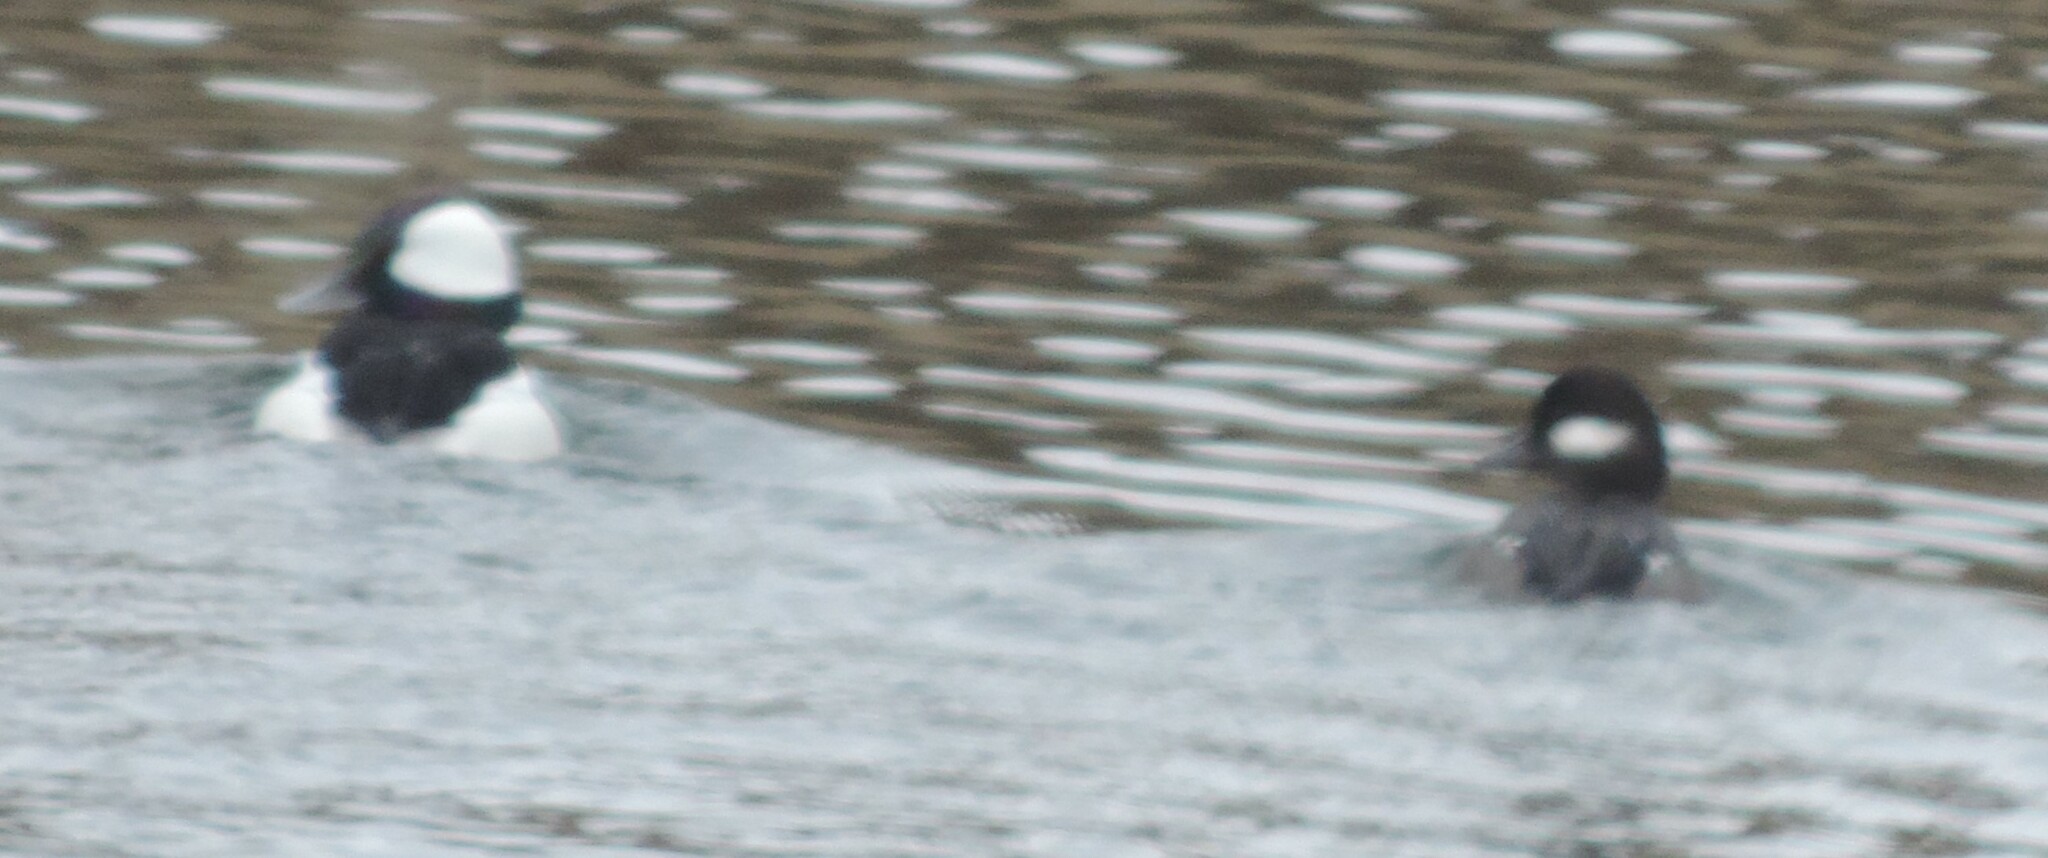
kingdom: Animalia
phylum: Chordata
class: Aves
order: Anseriformes
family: Anatidae
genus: Bucephala
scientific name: Bucephala albeola
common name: Bufflehead
